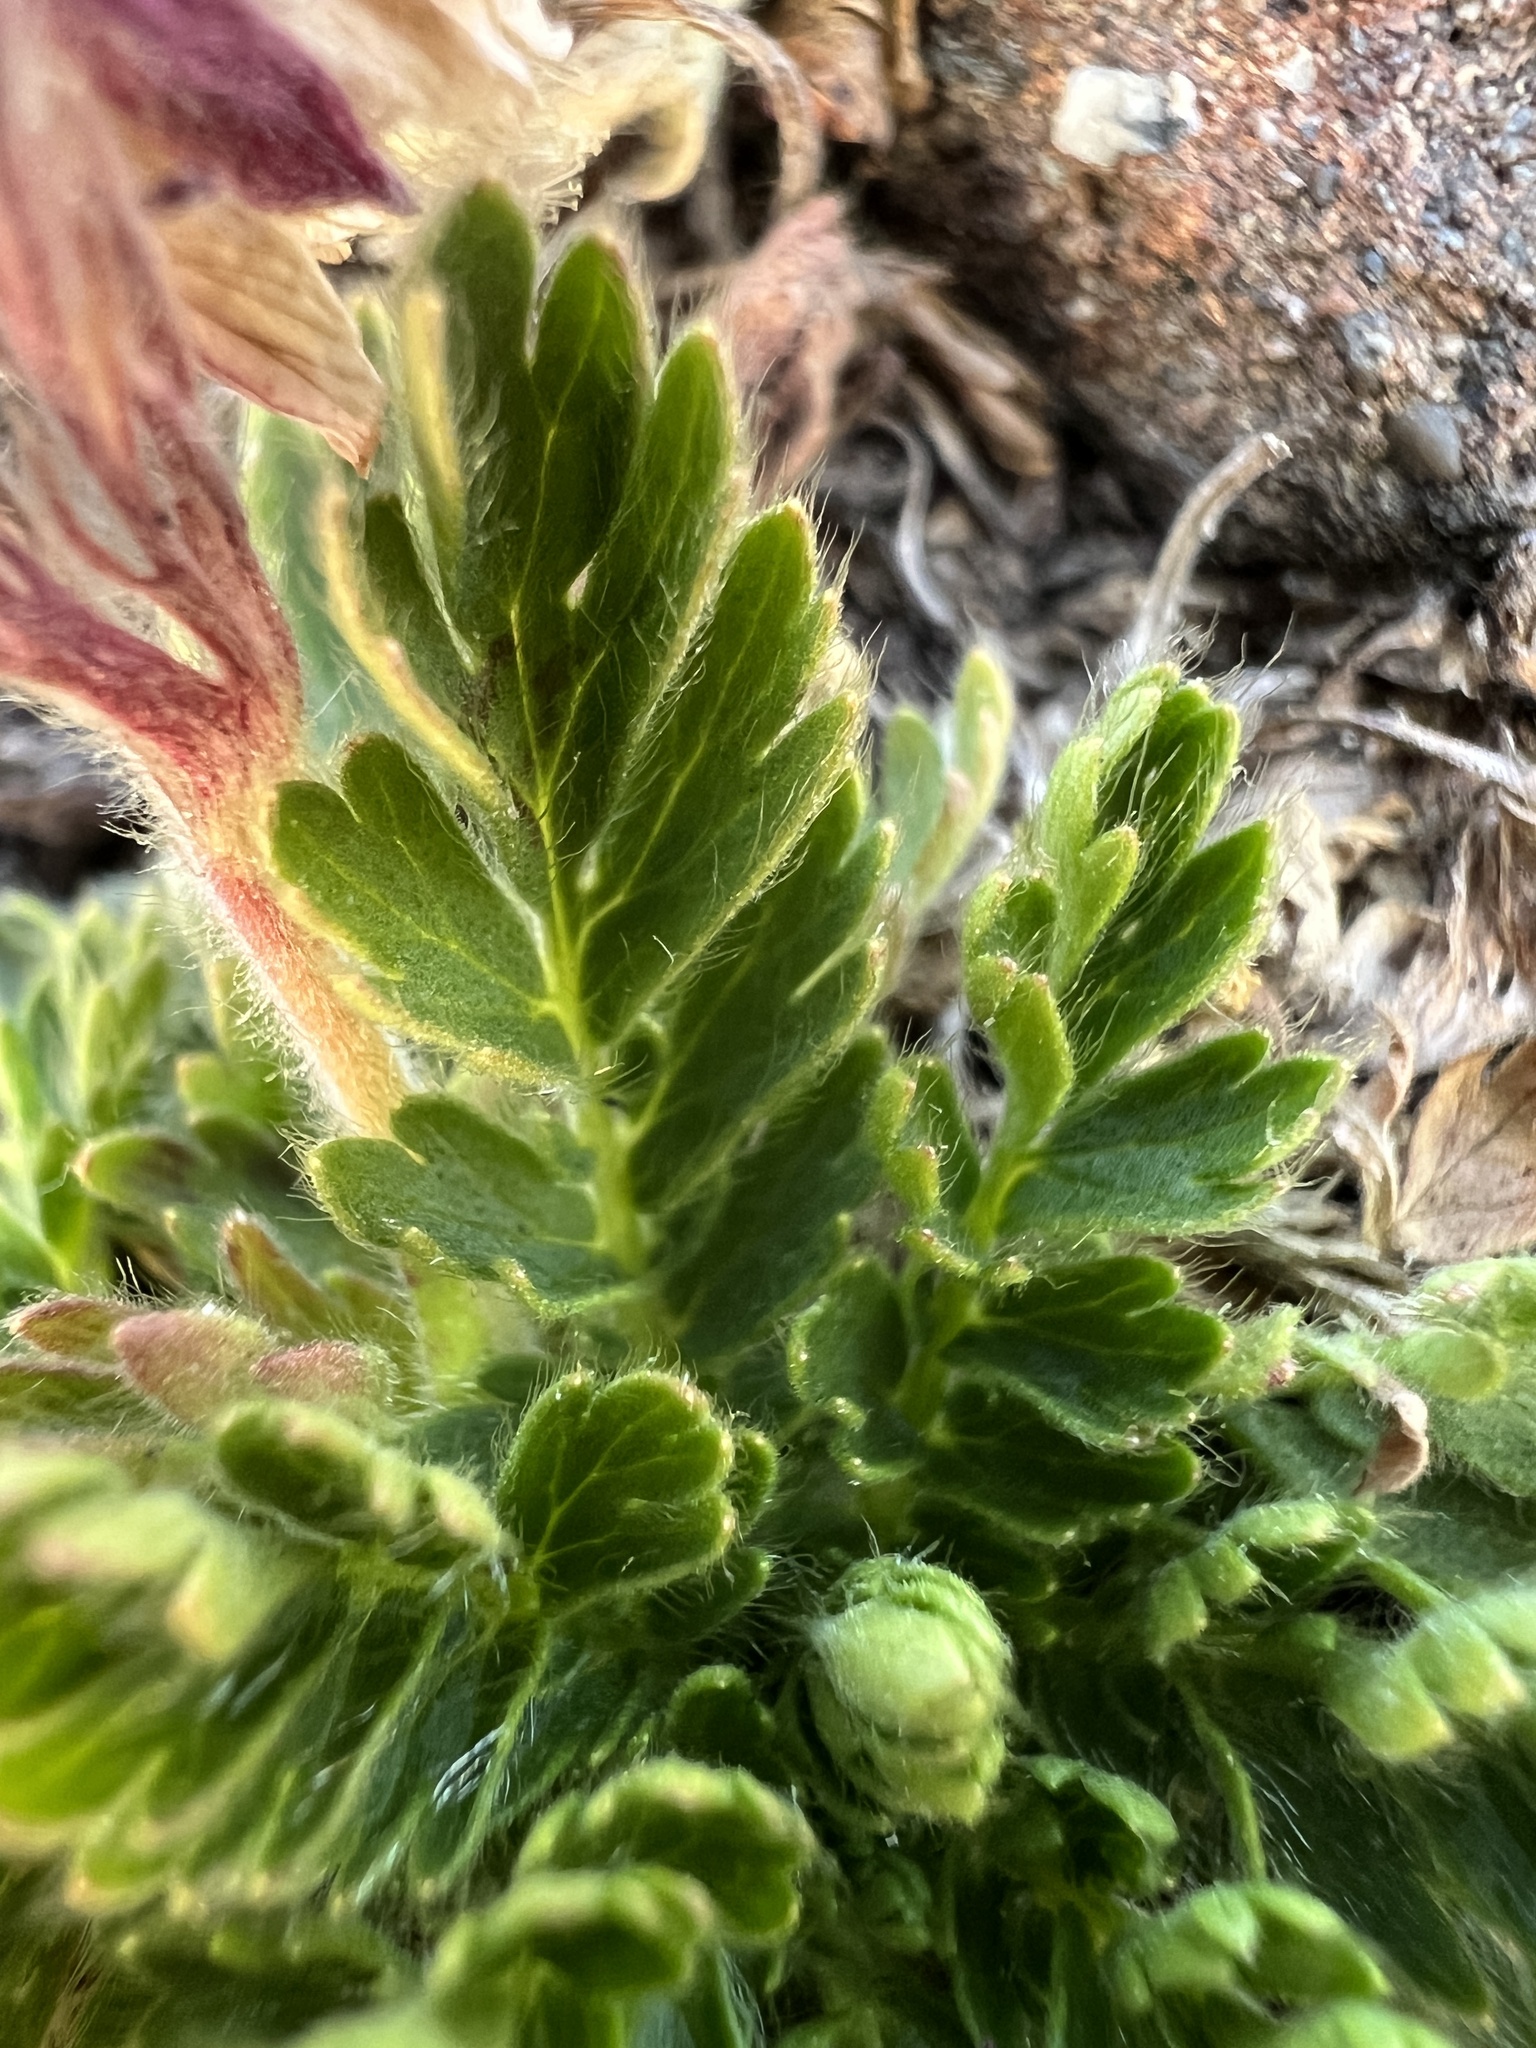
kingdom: Plantae
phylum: Tracheophyta
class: Magnoliopsida
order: Rosales
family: Rosaceae
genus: Geum
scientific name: Geum triflorum
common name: Old man's whiskers
